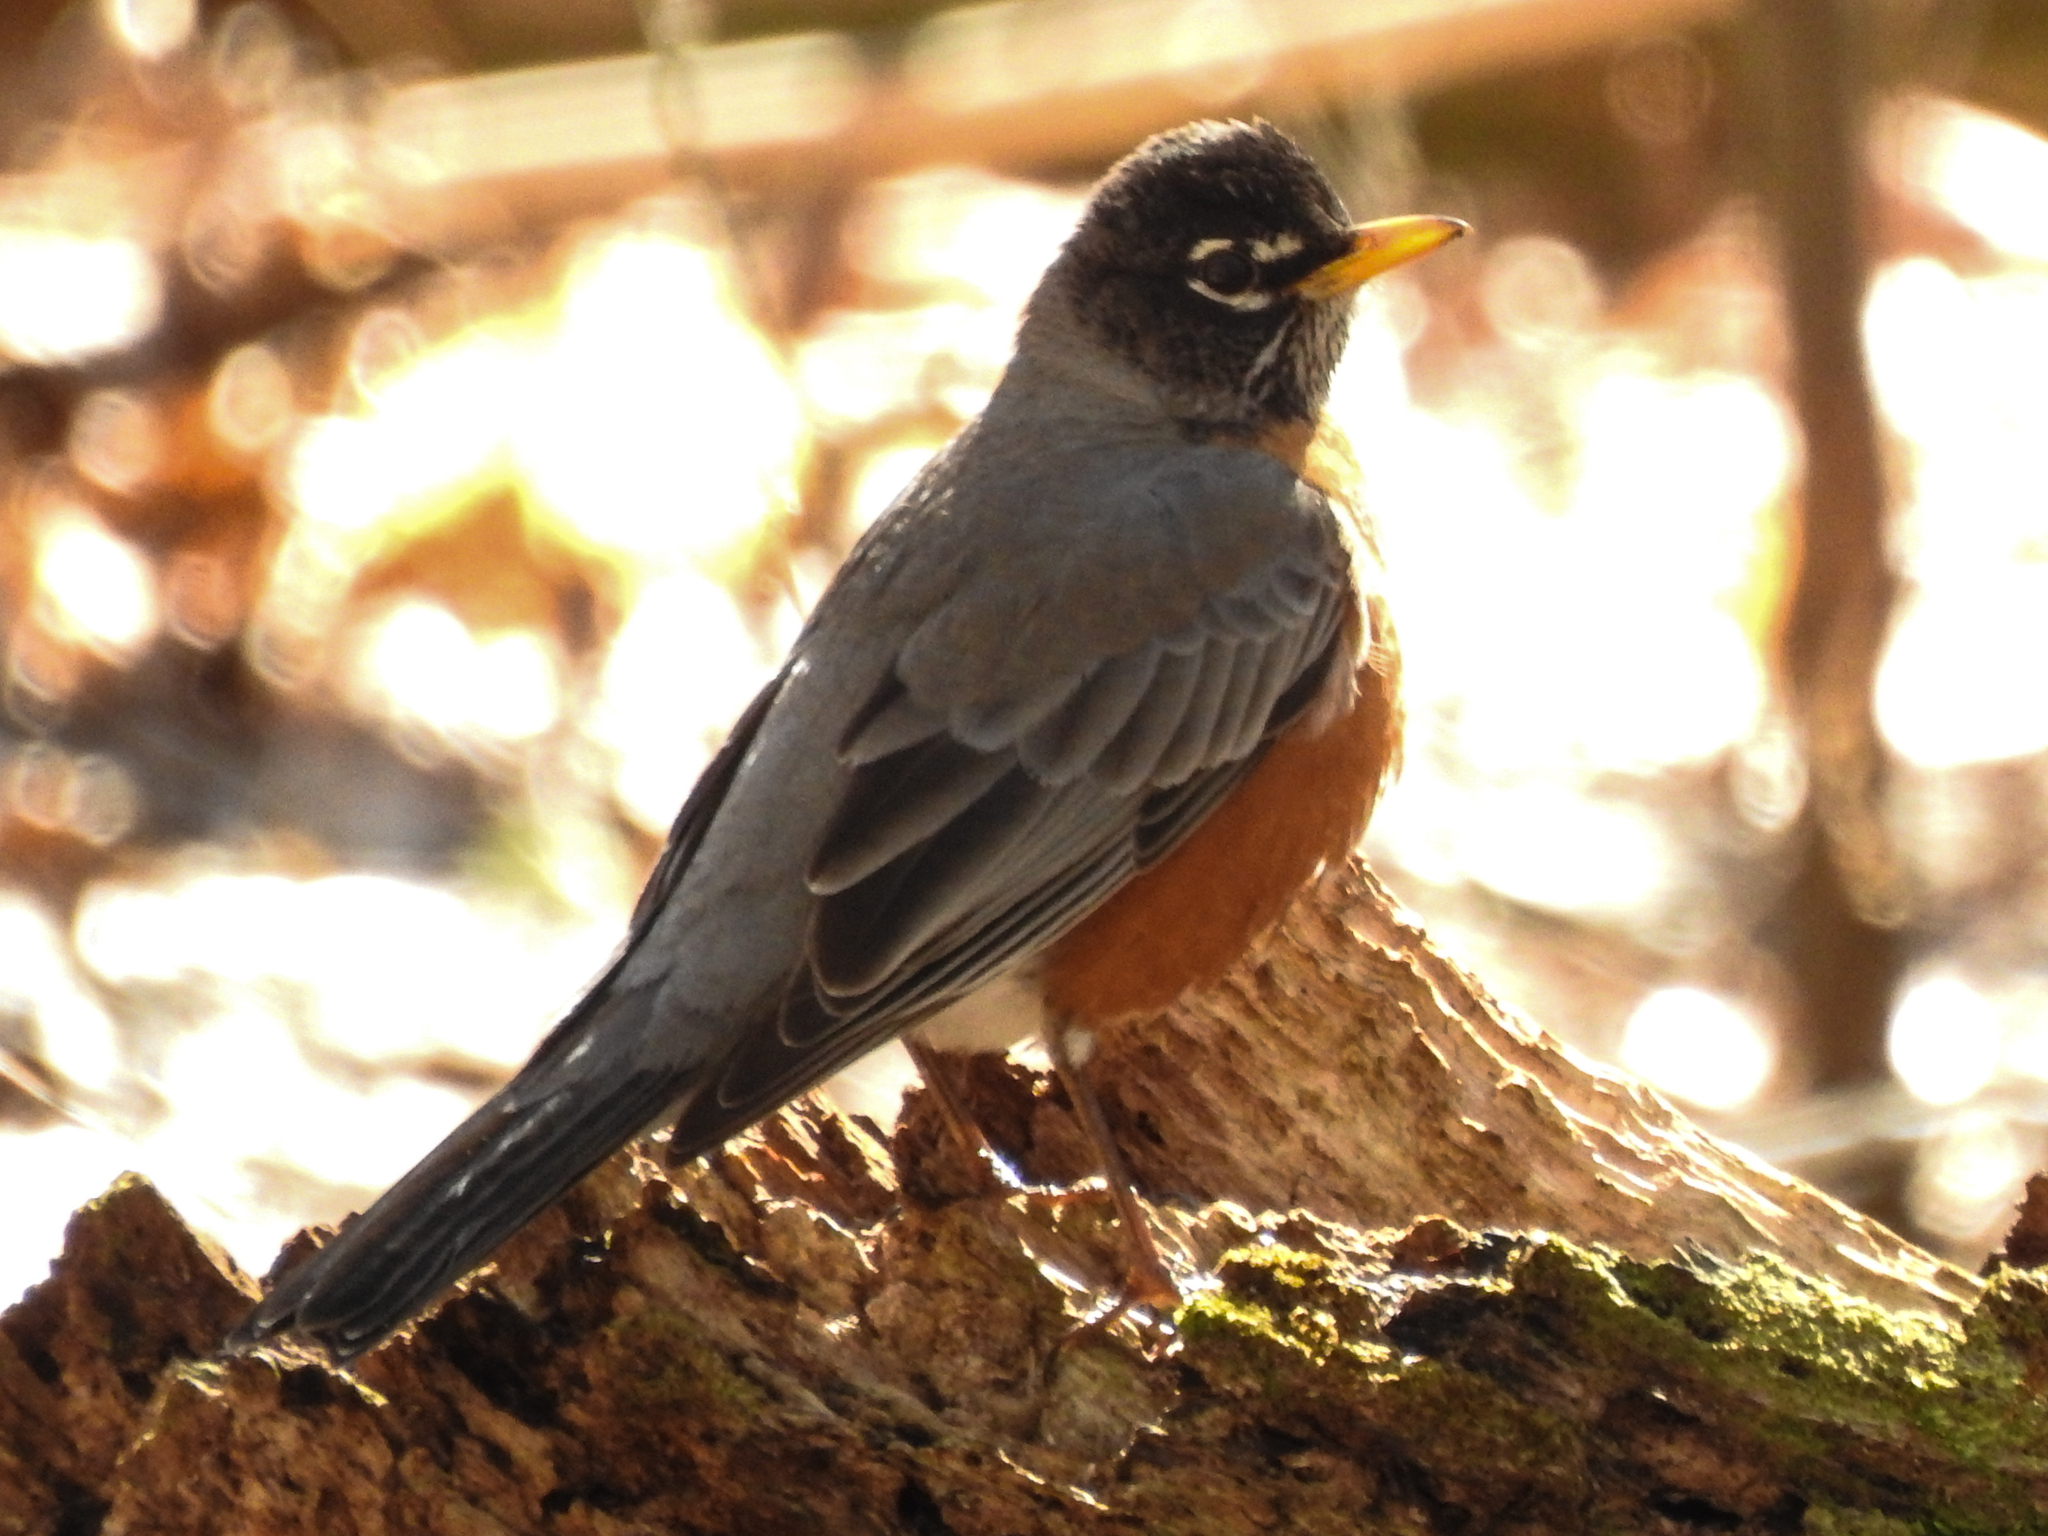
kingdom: Animalia
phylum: Chordata
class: Aves
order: Passeriformes
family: Turdidae
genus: Turdus
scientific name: Turdus migratorius
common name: American robin
